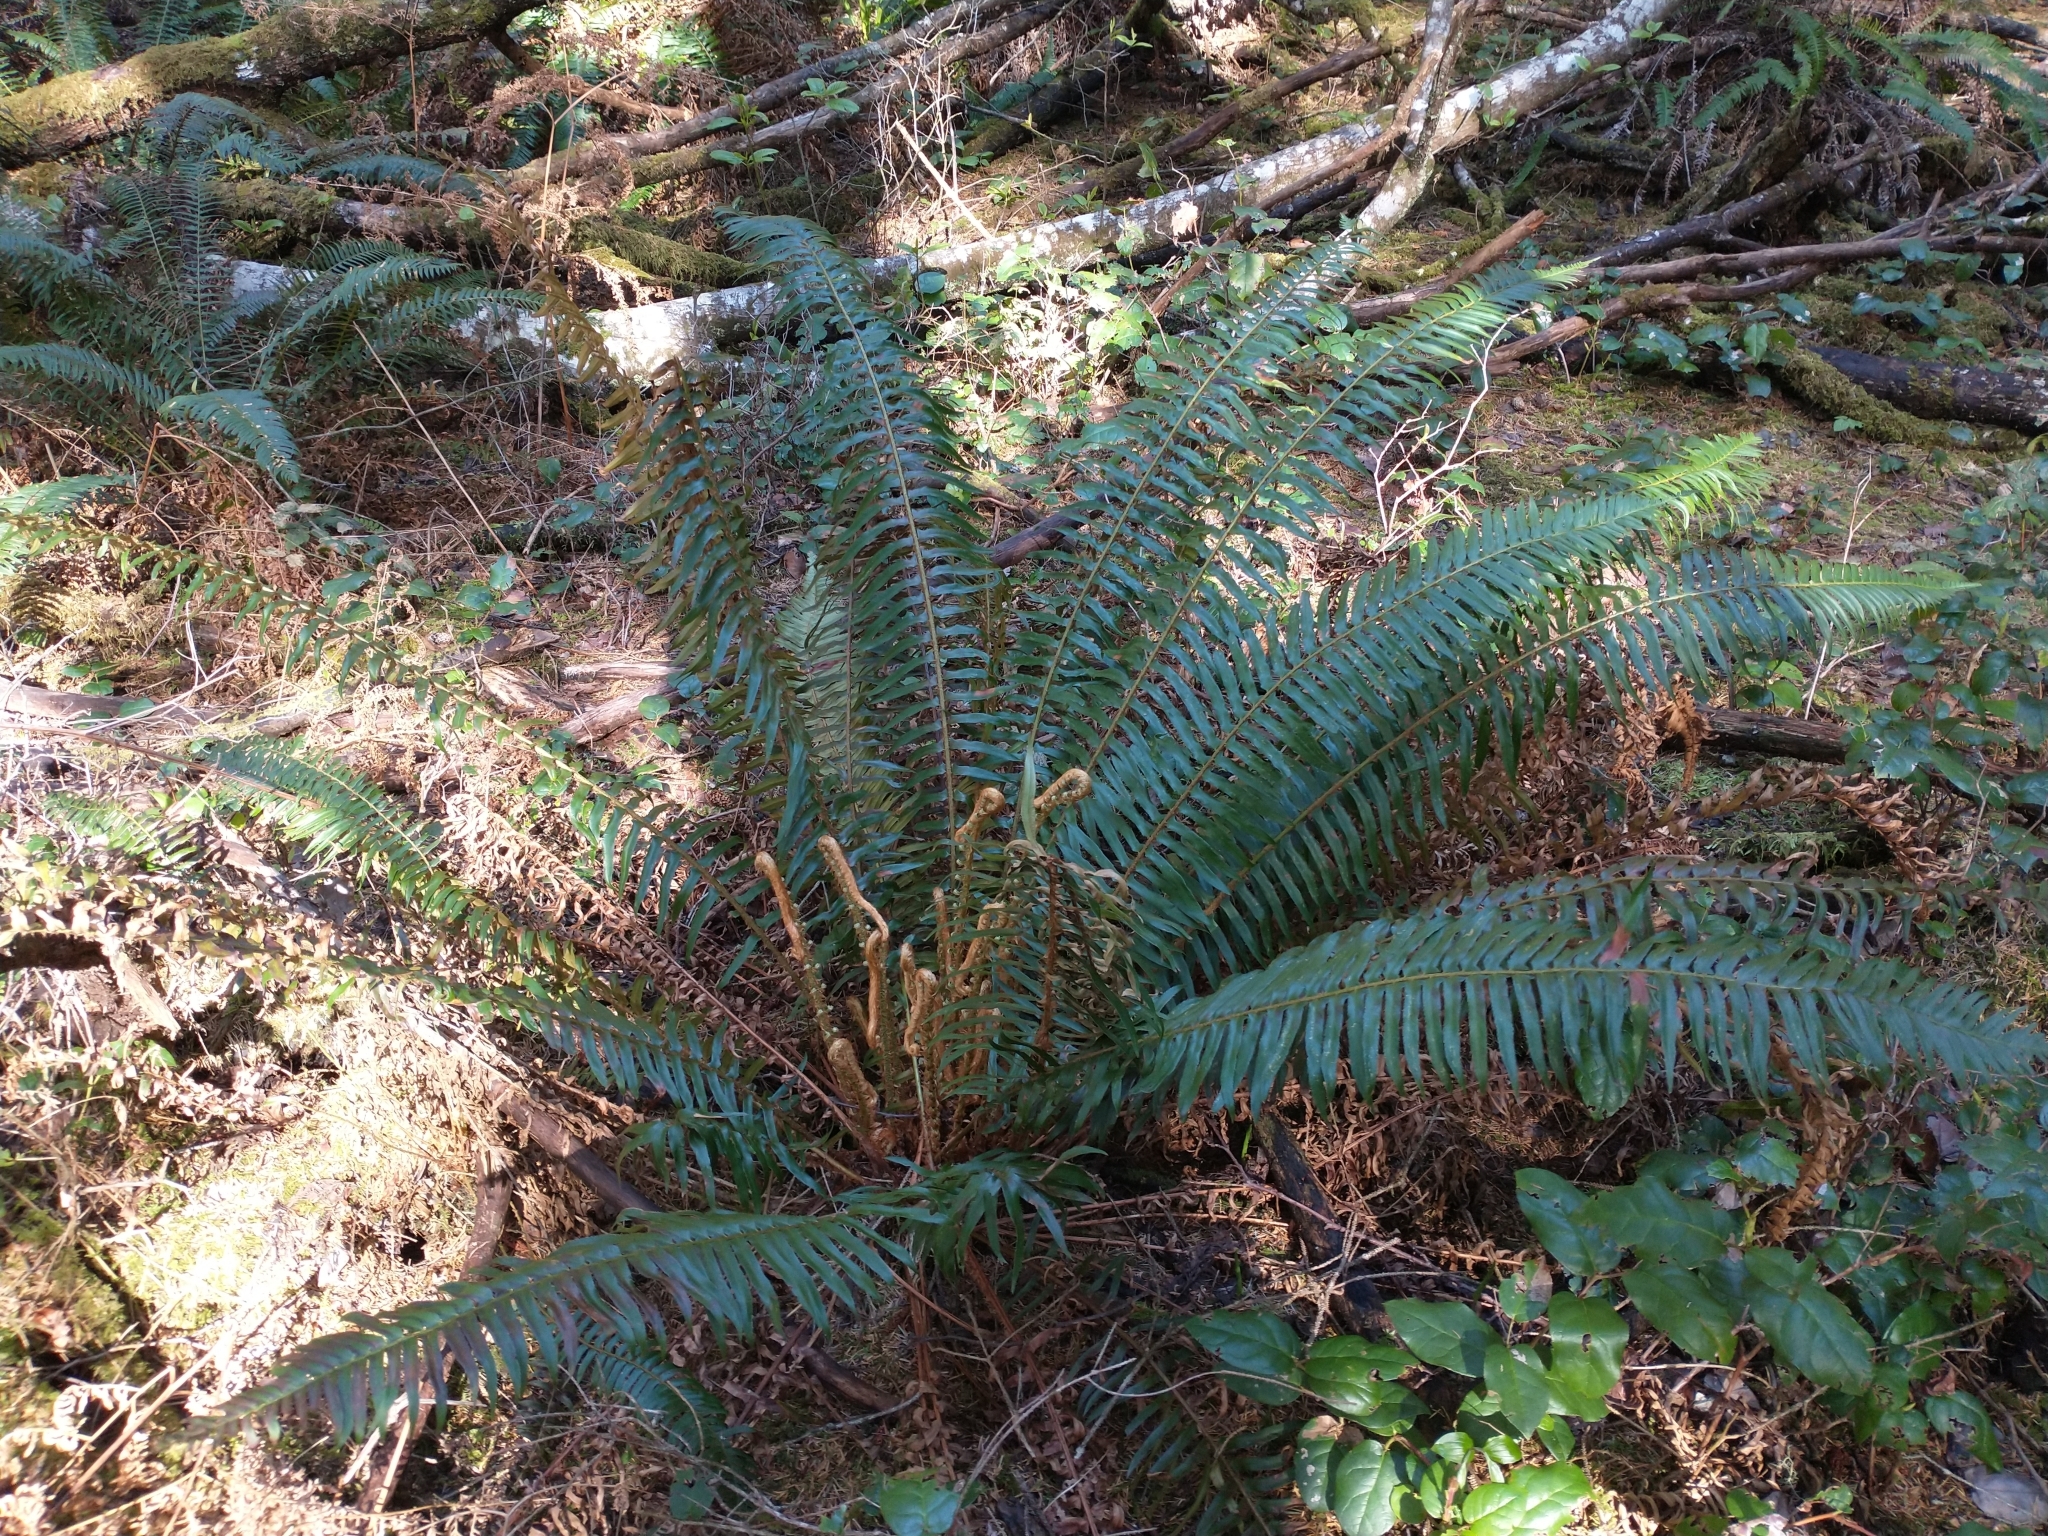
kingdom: Plantae
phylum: Tracheophyta
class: Polypodiopsida
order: Polypodiales
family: Dryopteridaceae
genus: Polystichum
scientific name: Polystichum munitum
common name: Western sword-fern
